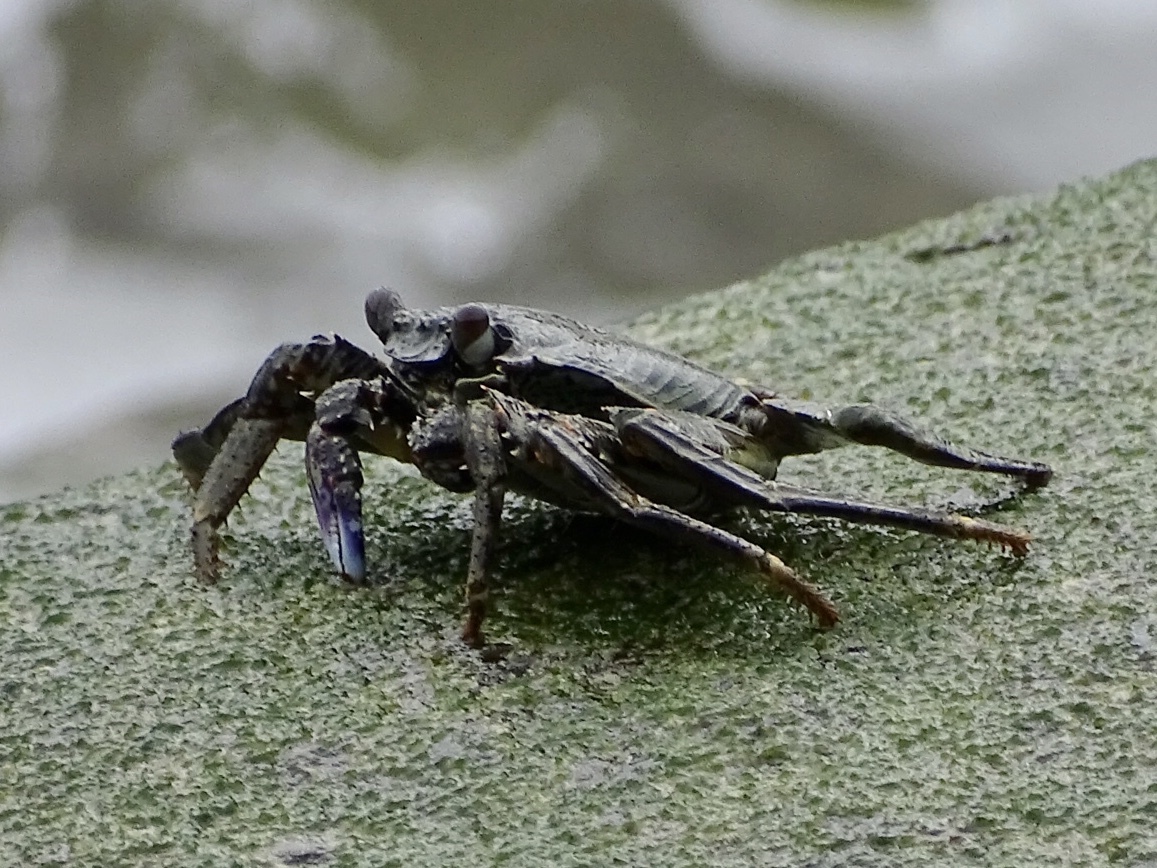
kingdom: Animalia
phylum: Arthropoda
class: Malacostraca
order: Decapoda
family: Grapsidae
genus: Grapsus
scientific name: Grapsus albolineatus
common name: Mottled lightfoot crab
